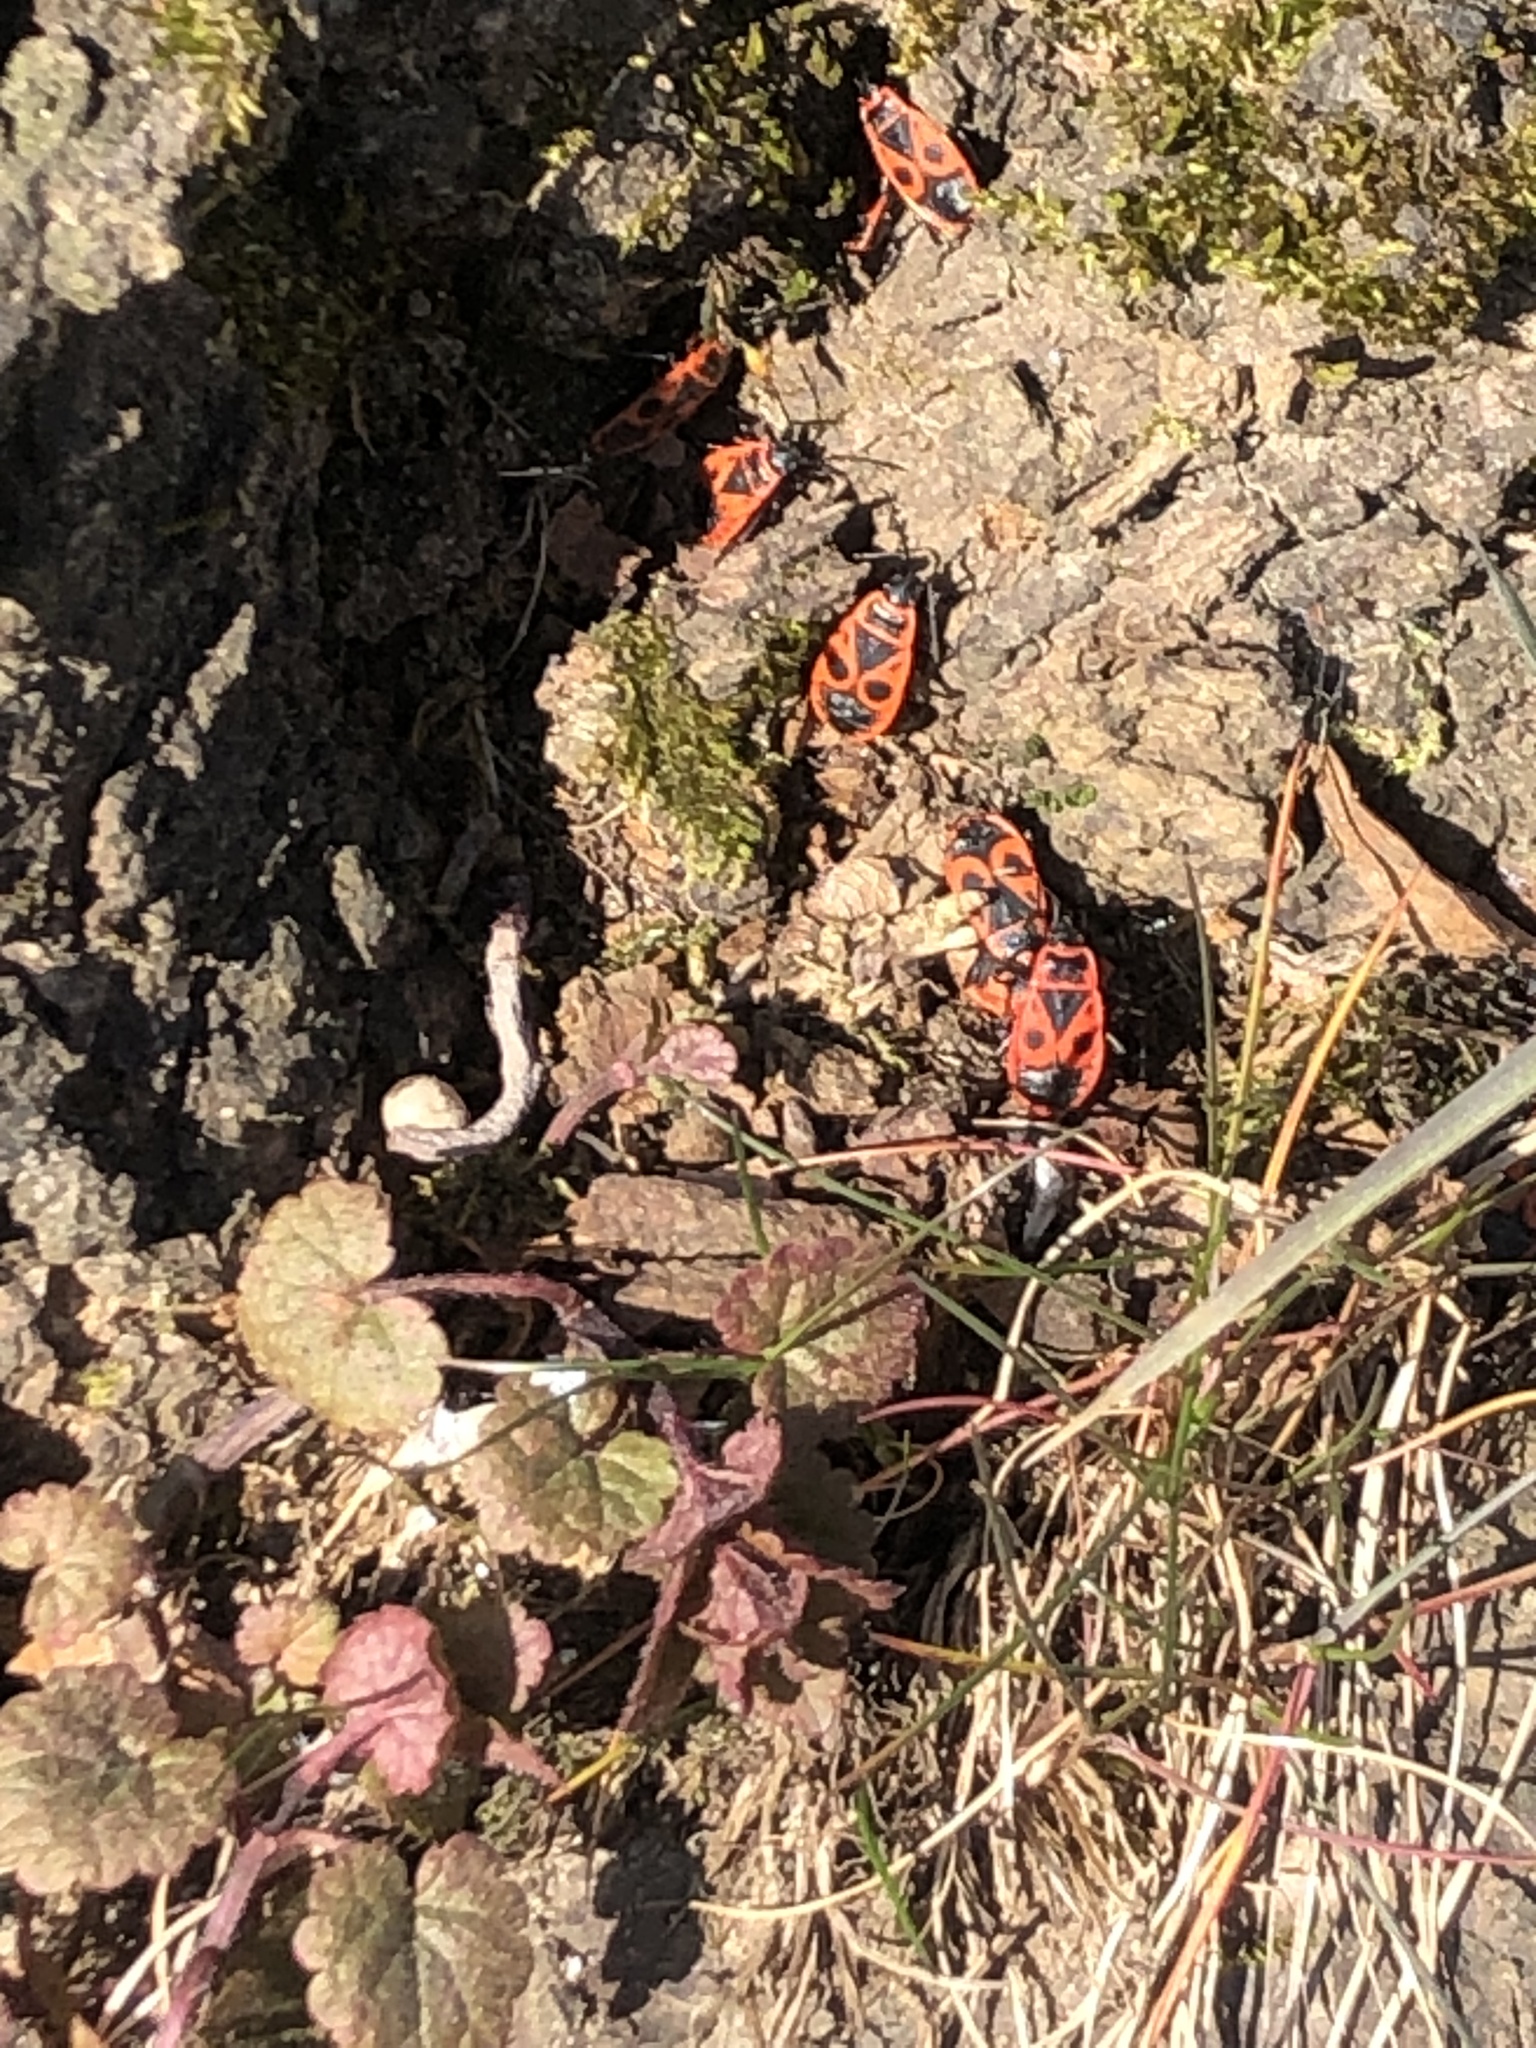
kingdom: Animalia
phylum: Arthropoda
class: Insecta
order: Hemiptera
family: Pyrrhocoridae
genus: Pyrrhocoris
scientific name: Pyrrhocoris apterus
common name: Firebug
